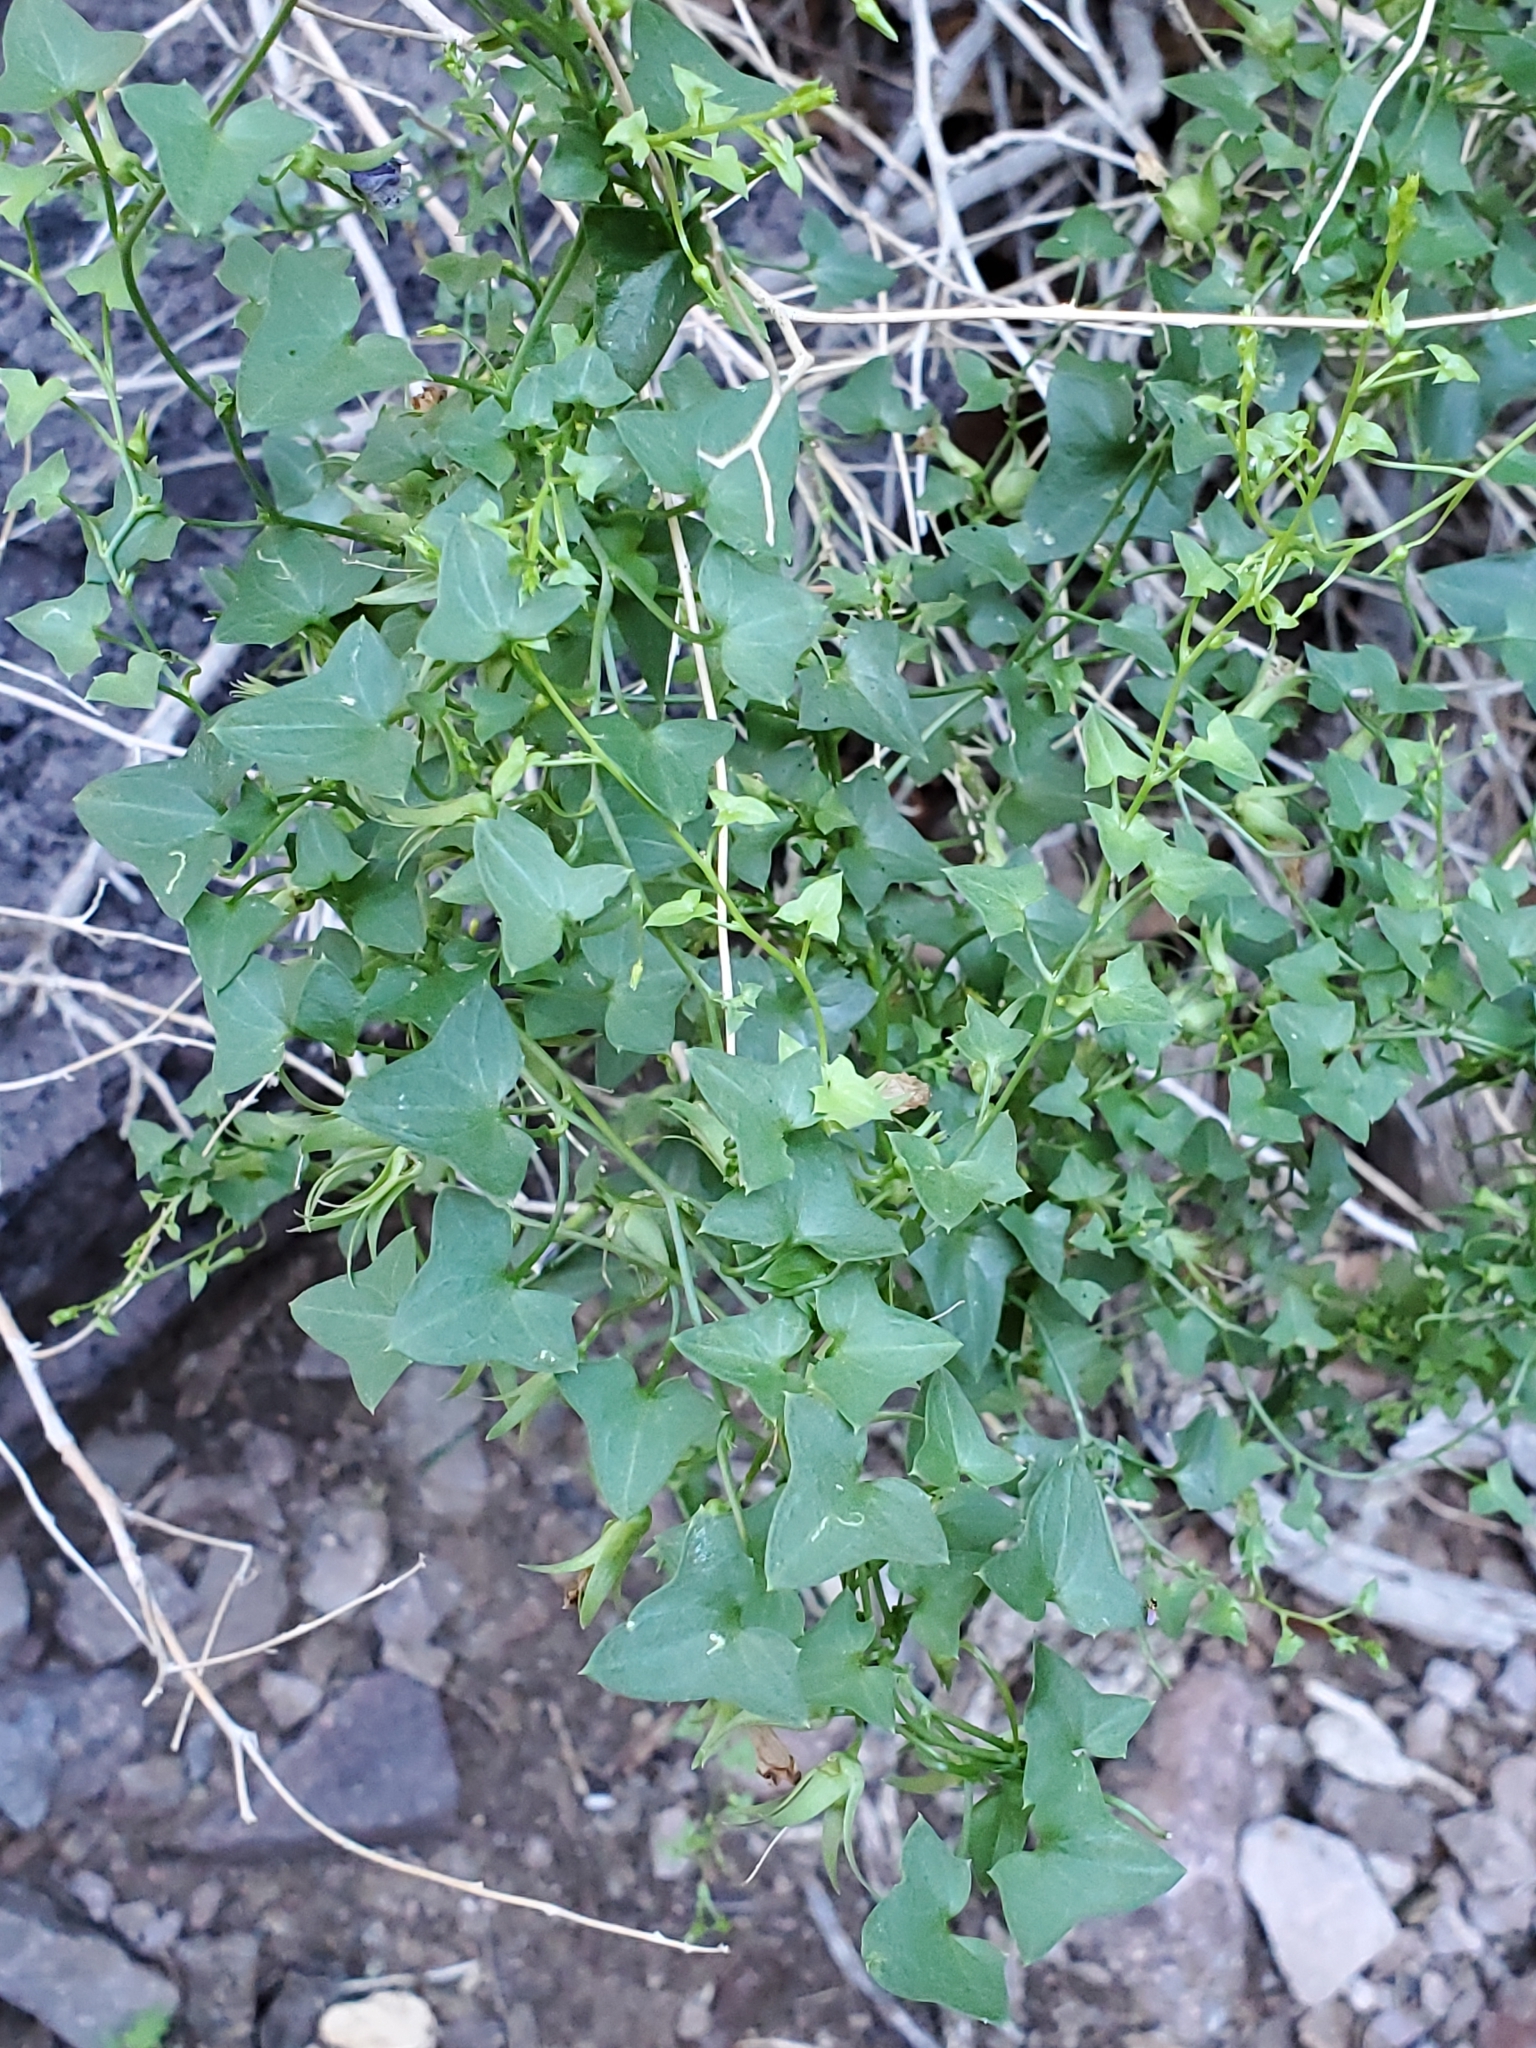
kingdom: Plantae
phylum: Tracheophyta
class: Magnoliopsida
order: Lamiales
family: Plantaginaceae
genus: Maurandella
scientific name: Maurandella antirrhiniflora
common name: Violet twining-snapdragon
